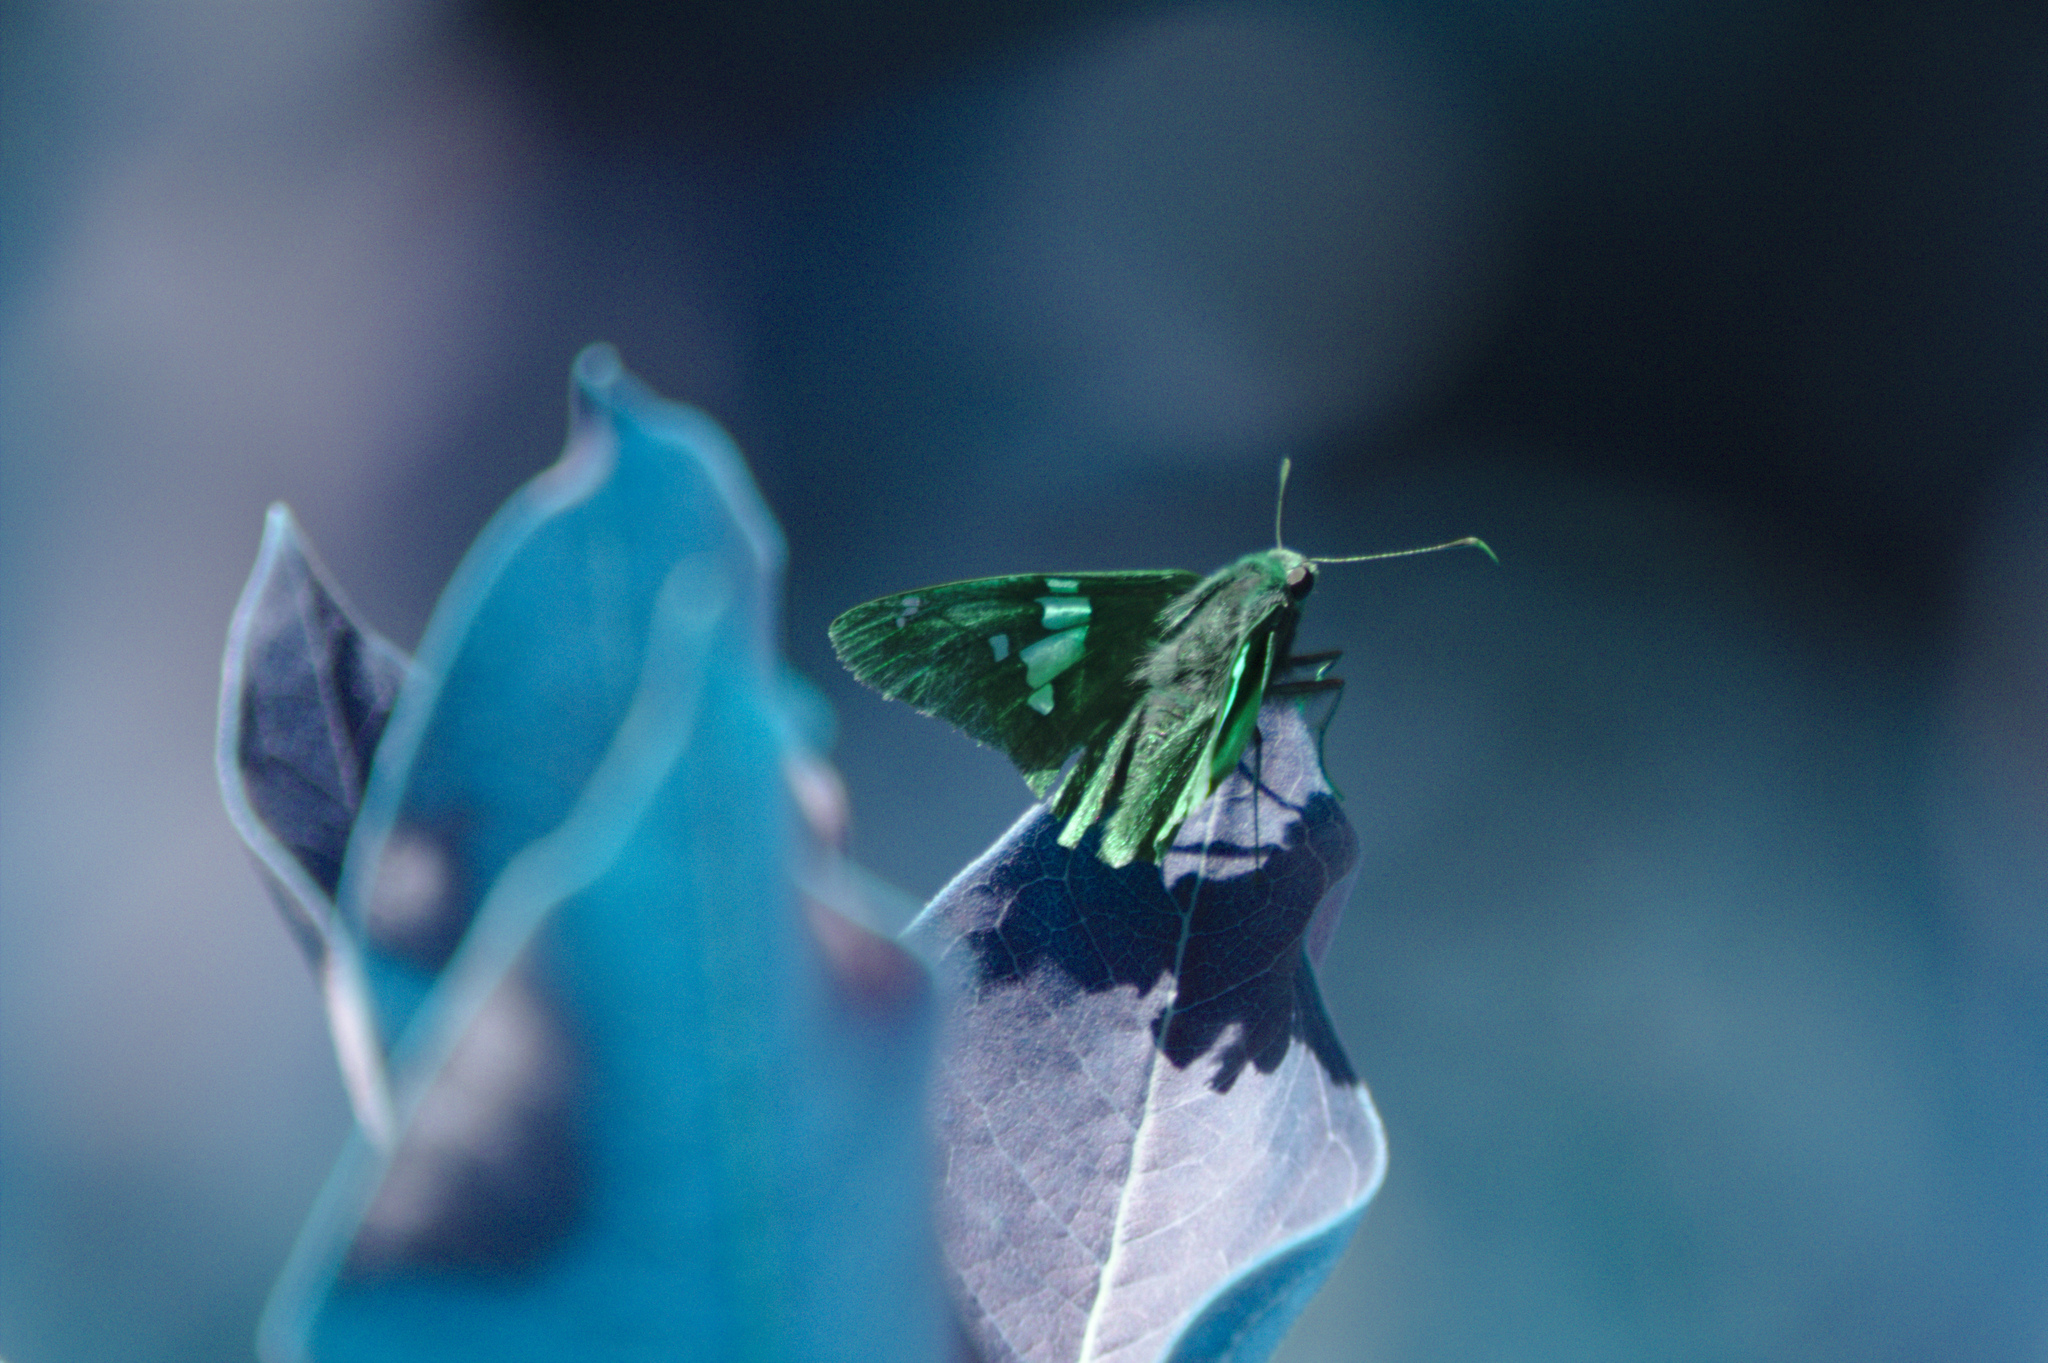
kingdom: Animalia
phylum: Arthropoda
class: Insecta
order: Lepidoptera
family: Hesperiidae
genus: Epargyreus
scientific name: Epargyreus clarus
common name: Silver-spotted skipper
